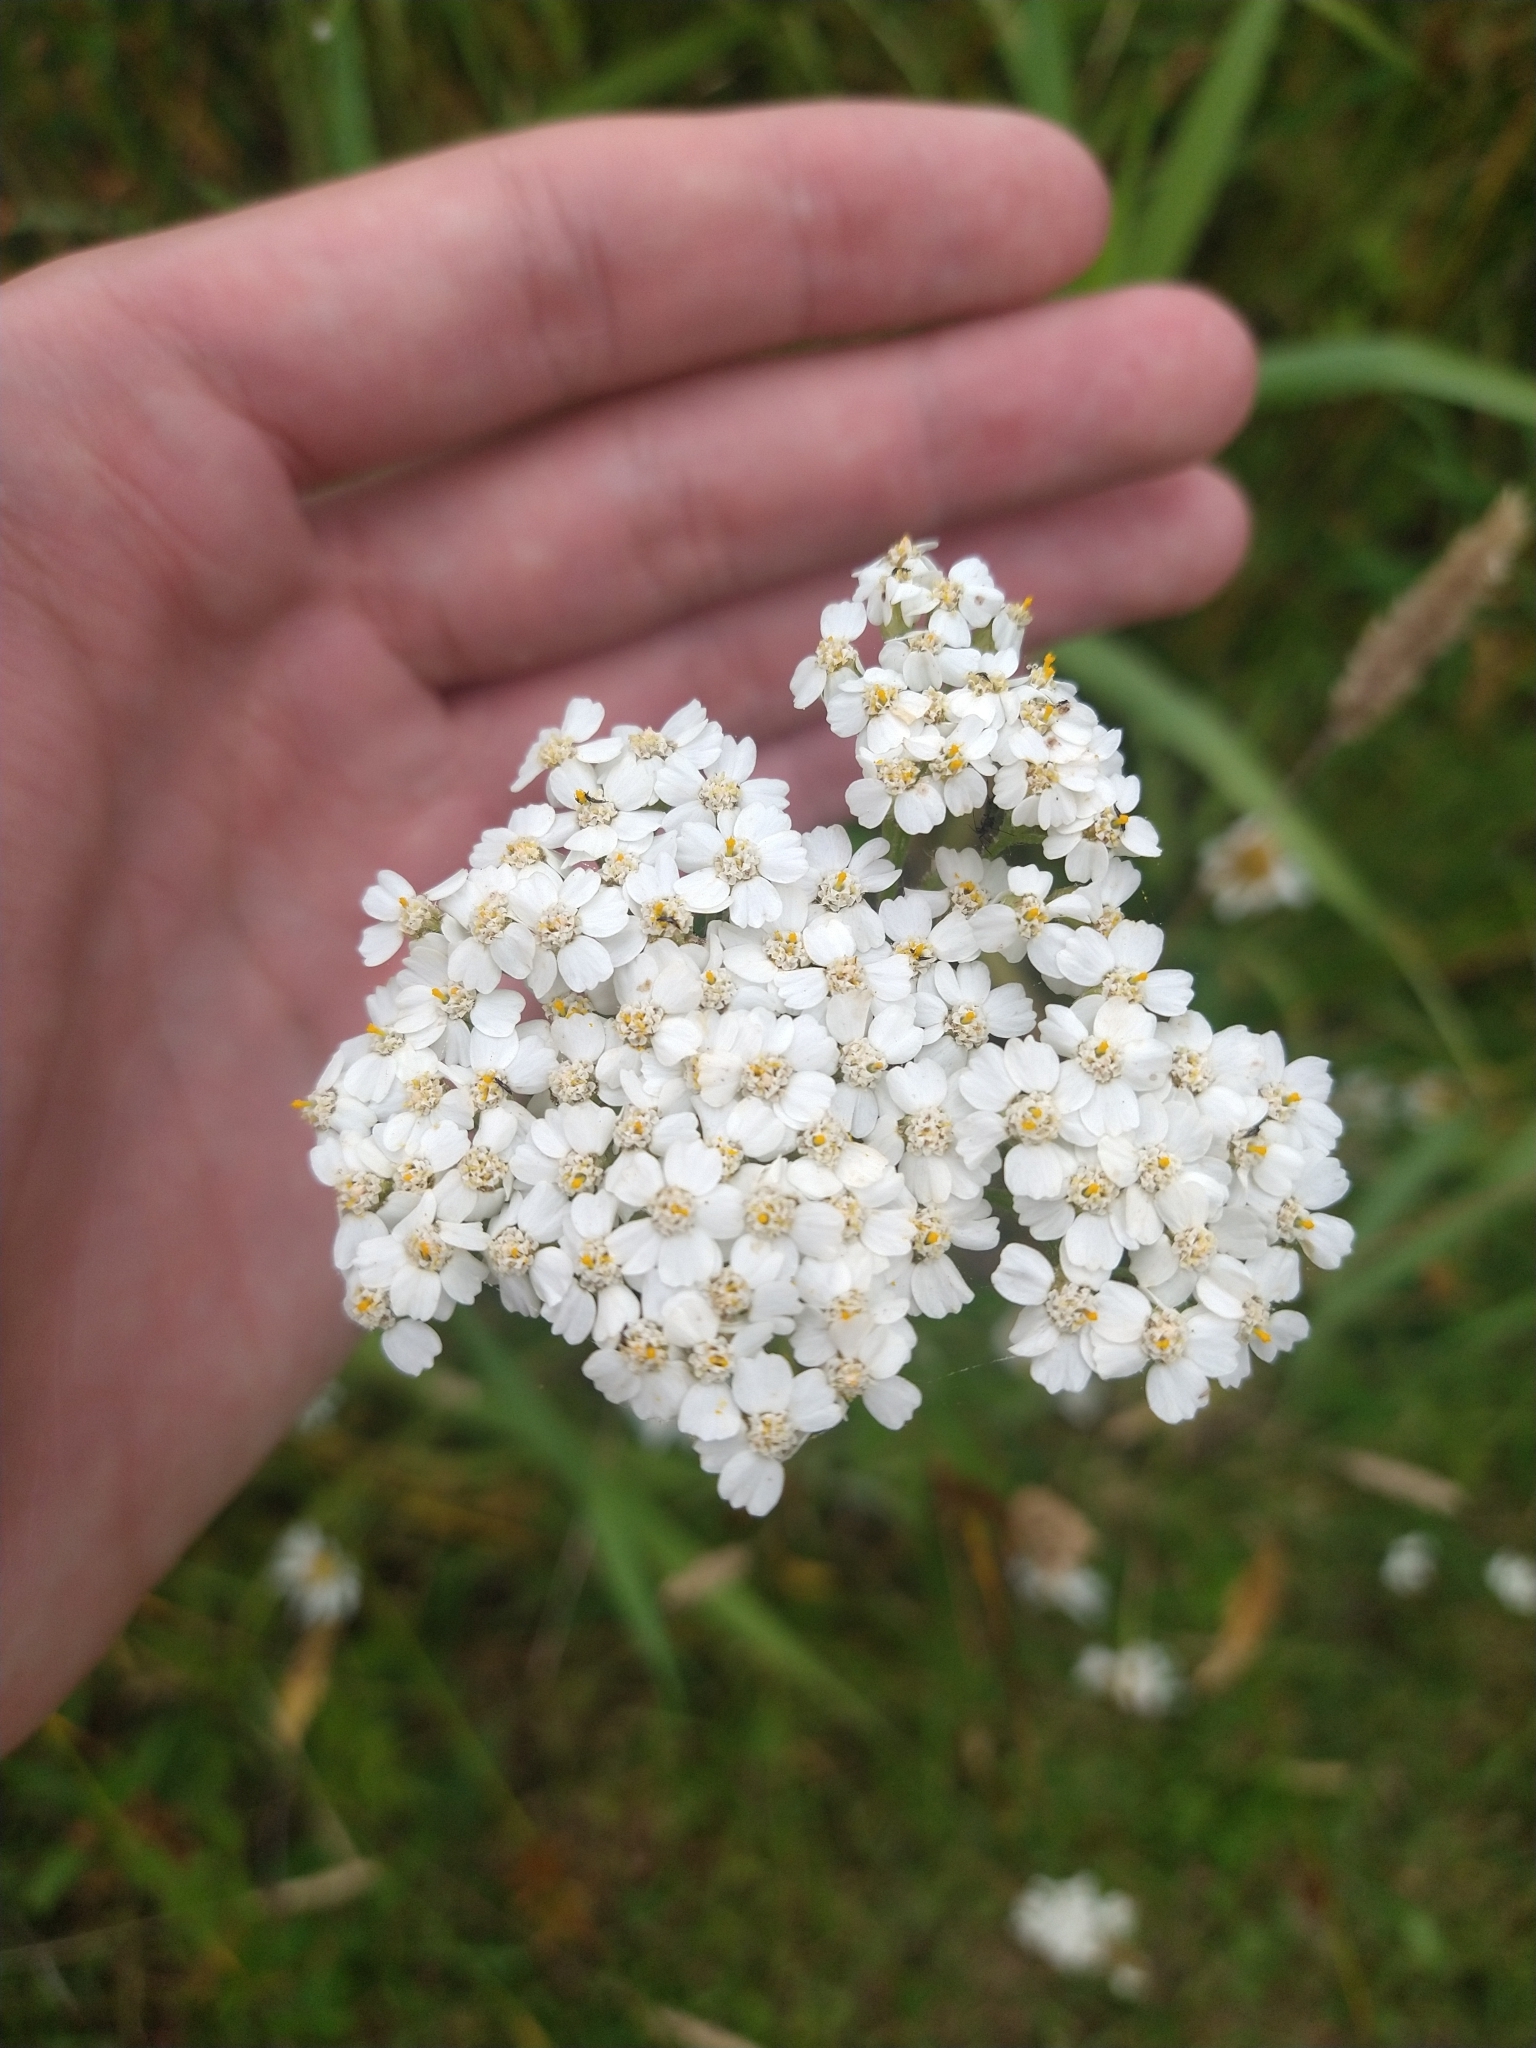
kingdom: Plantae
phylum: Tracheophyta
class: Magnoliopsida
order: Asterales
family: Asteraceae
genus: Achillea
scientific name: Achillea millefolium
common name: Yarrow
